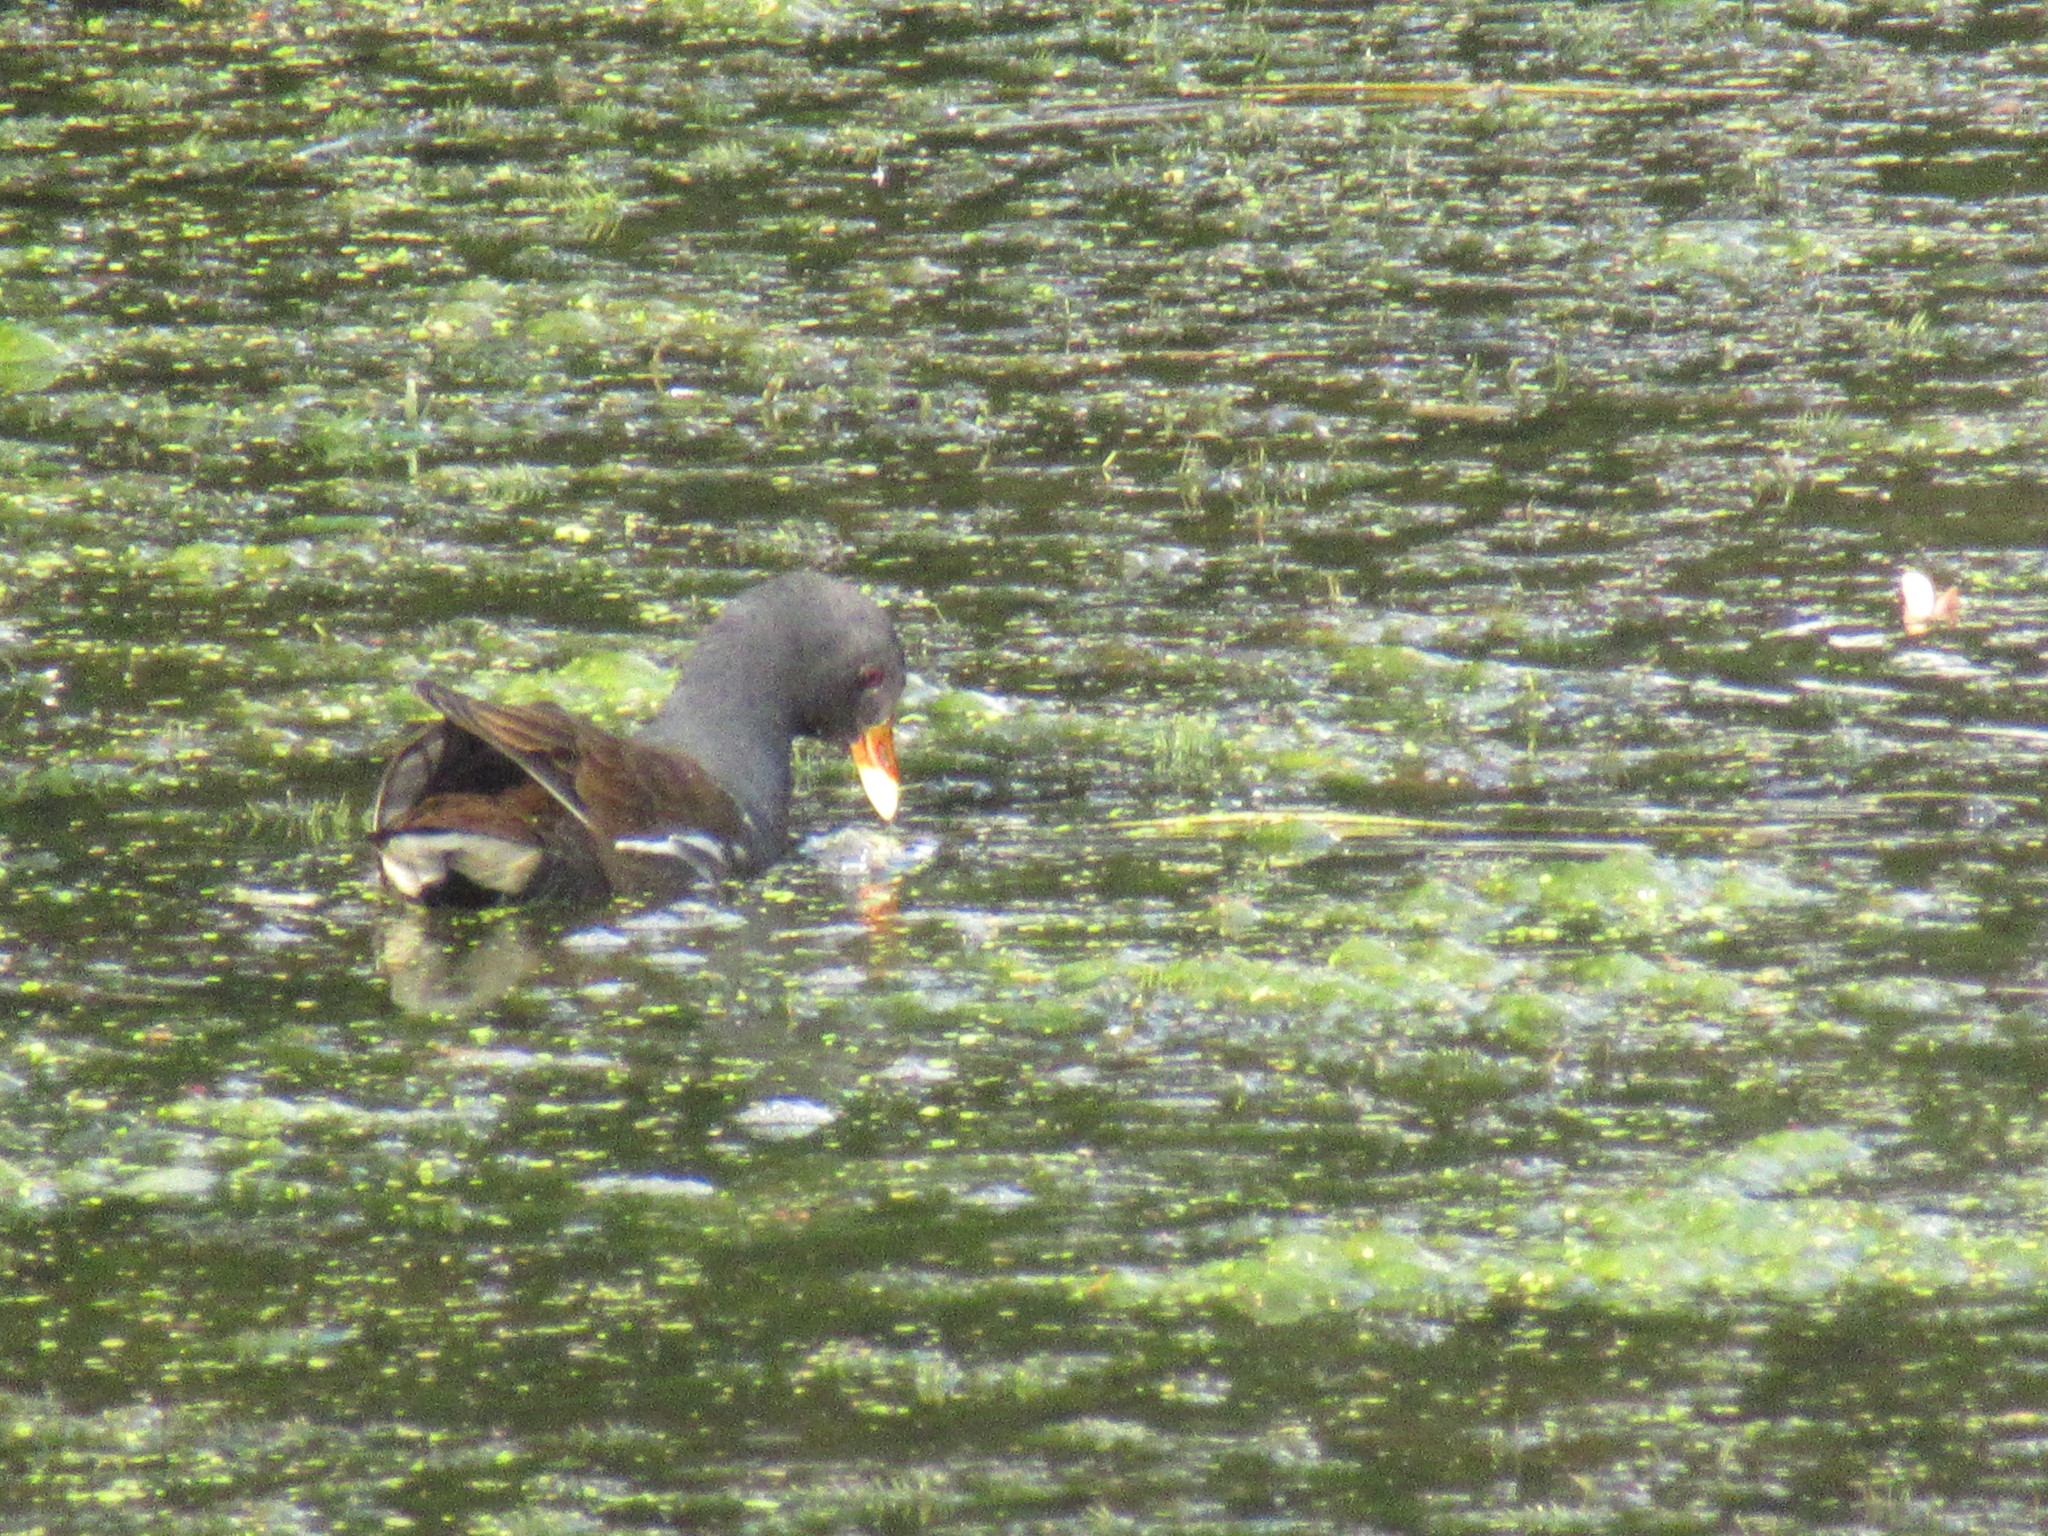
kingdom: Animalia
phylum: Chordata
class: Aves
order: Gruiformes
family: Rallidae
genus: Gallinula
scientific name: Gallinula chloropus
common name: Common moorhen
